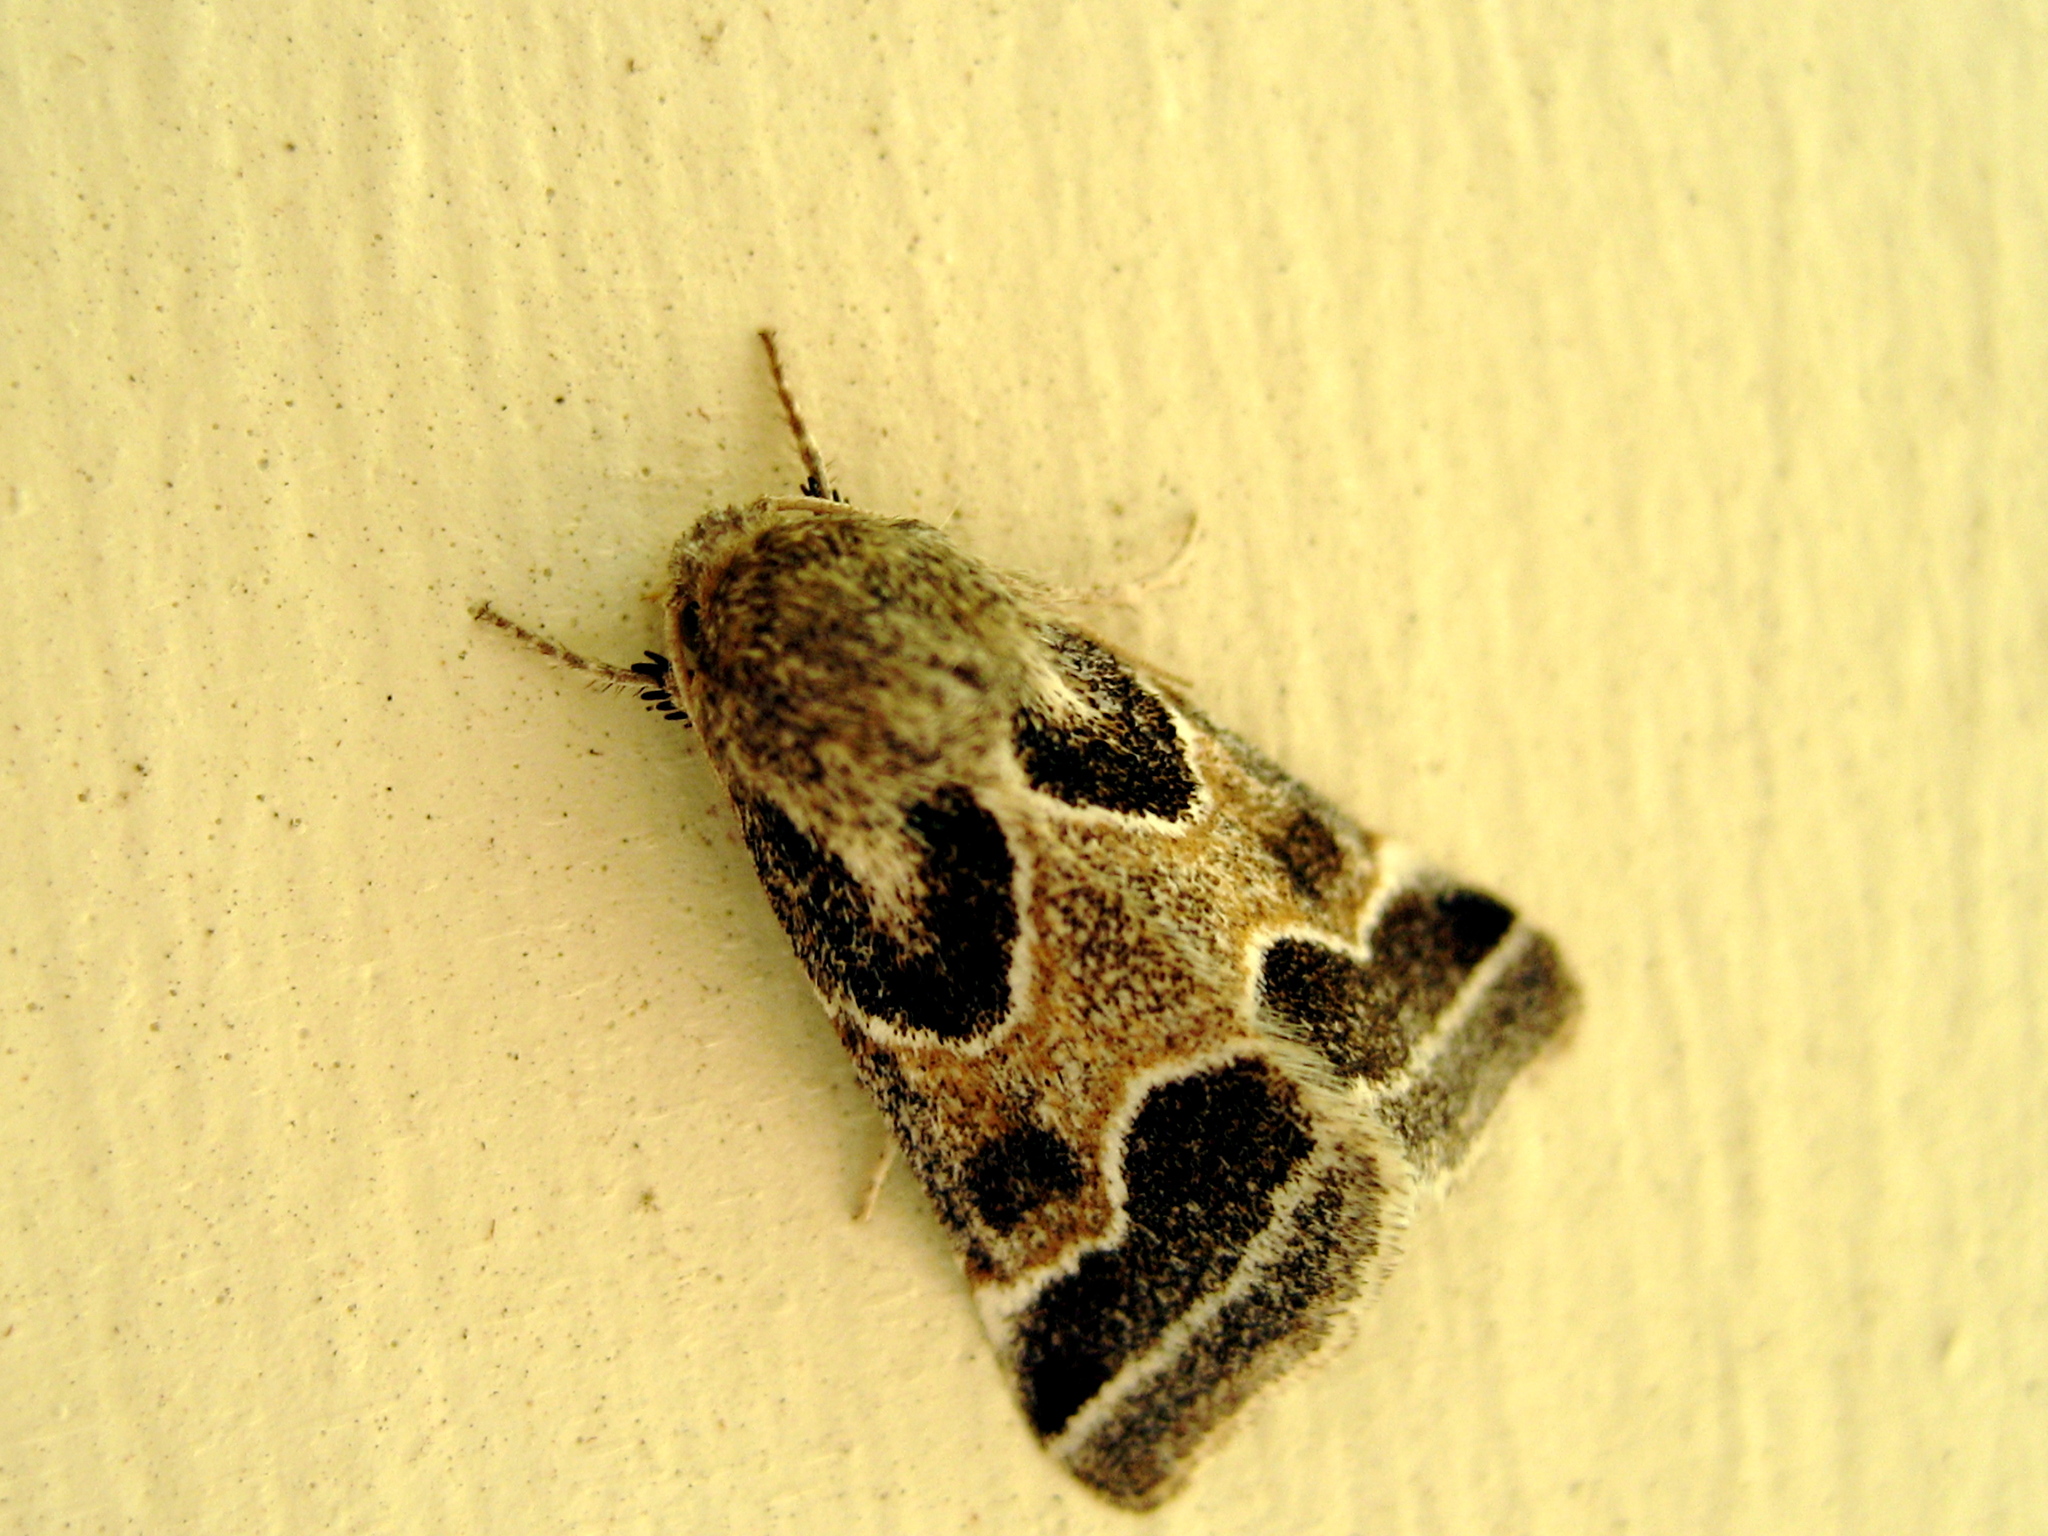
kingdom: Animalia
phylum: Arthropoda
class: Insecta
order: Lepidoptera
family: Noctuidae
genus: Schinia
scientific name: Schinia rivulosa
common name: Scarce meal-moth
